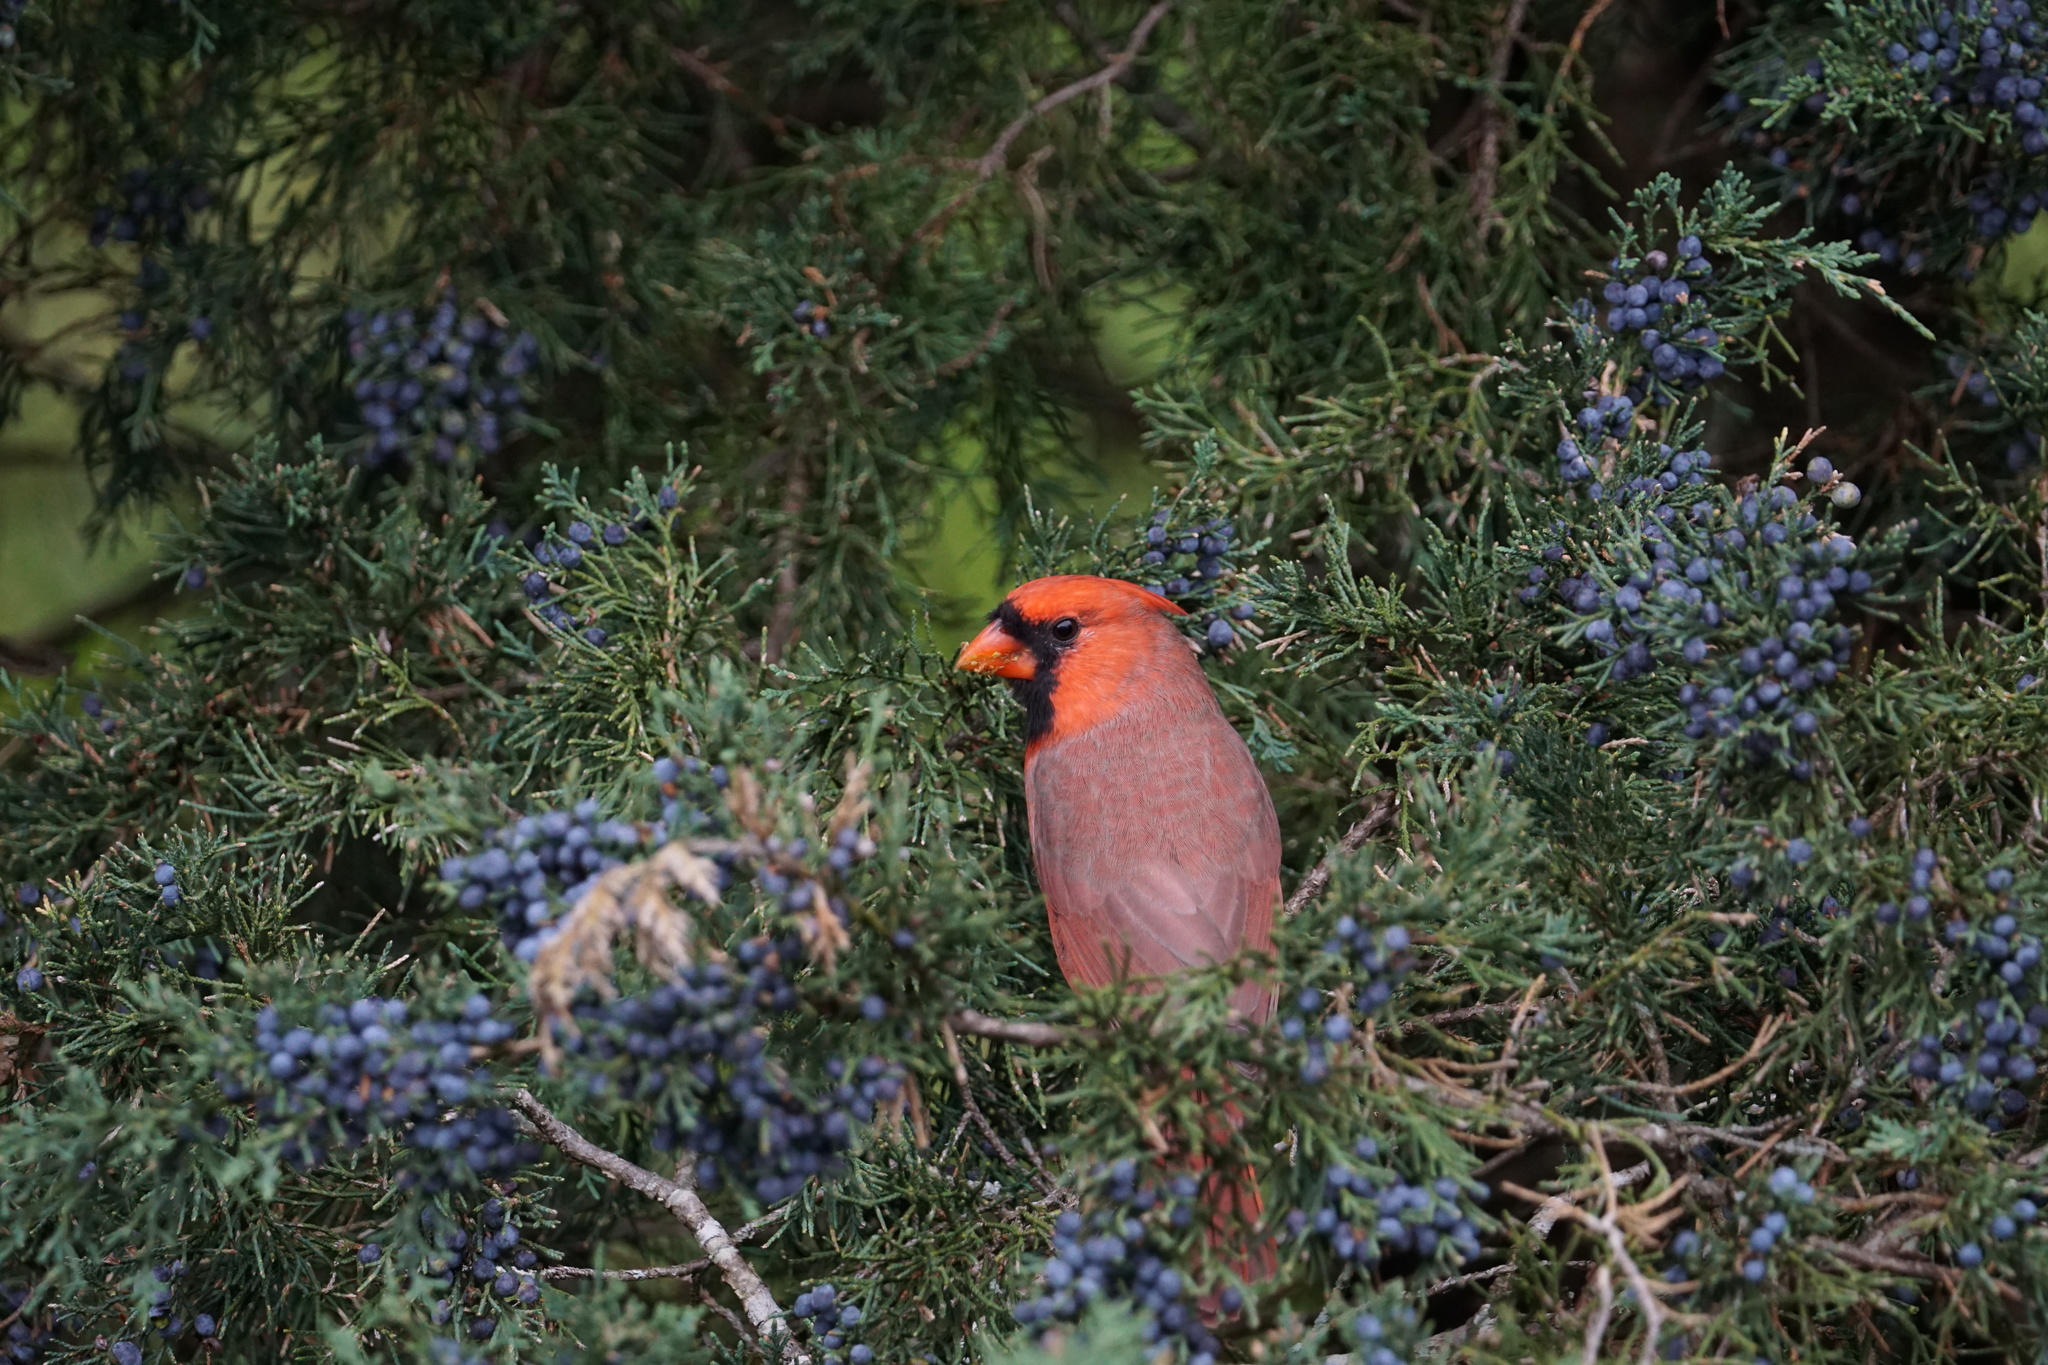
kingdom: Animalia
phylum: Chordata
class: Aves
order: Passeriformes
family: Cardinalidae
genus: Cardinalis
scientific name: Cardinalis cardinalis
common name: Northern cardinal
